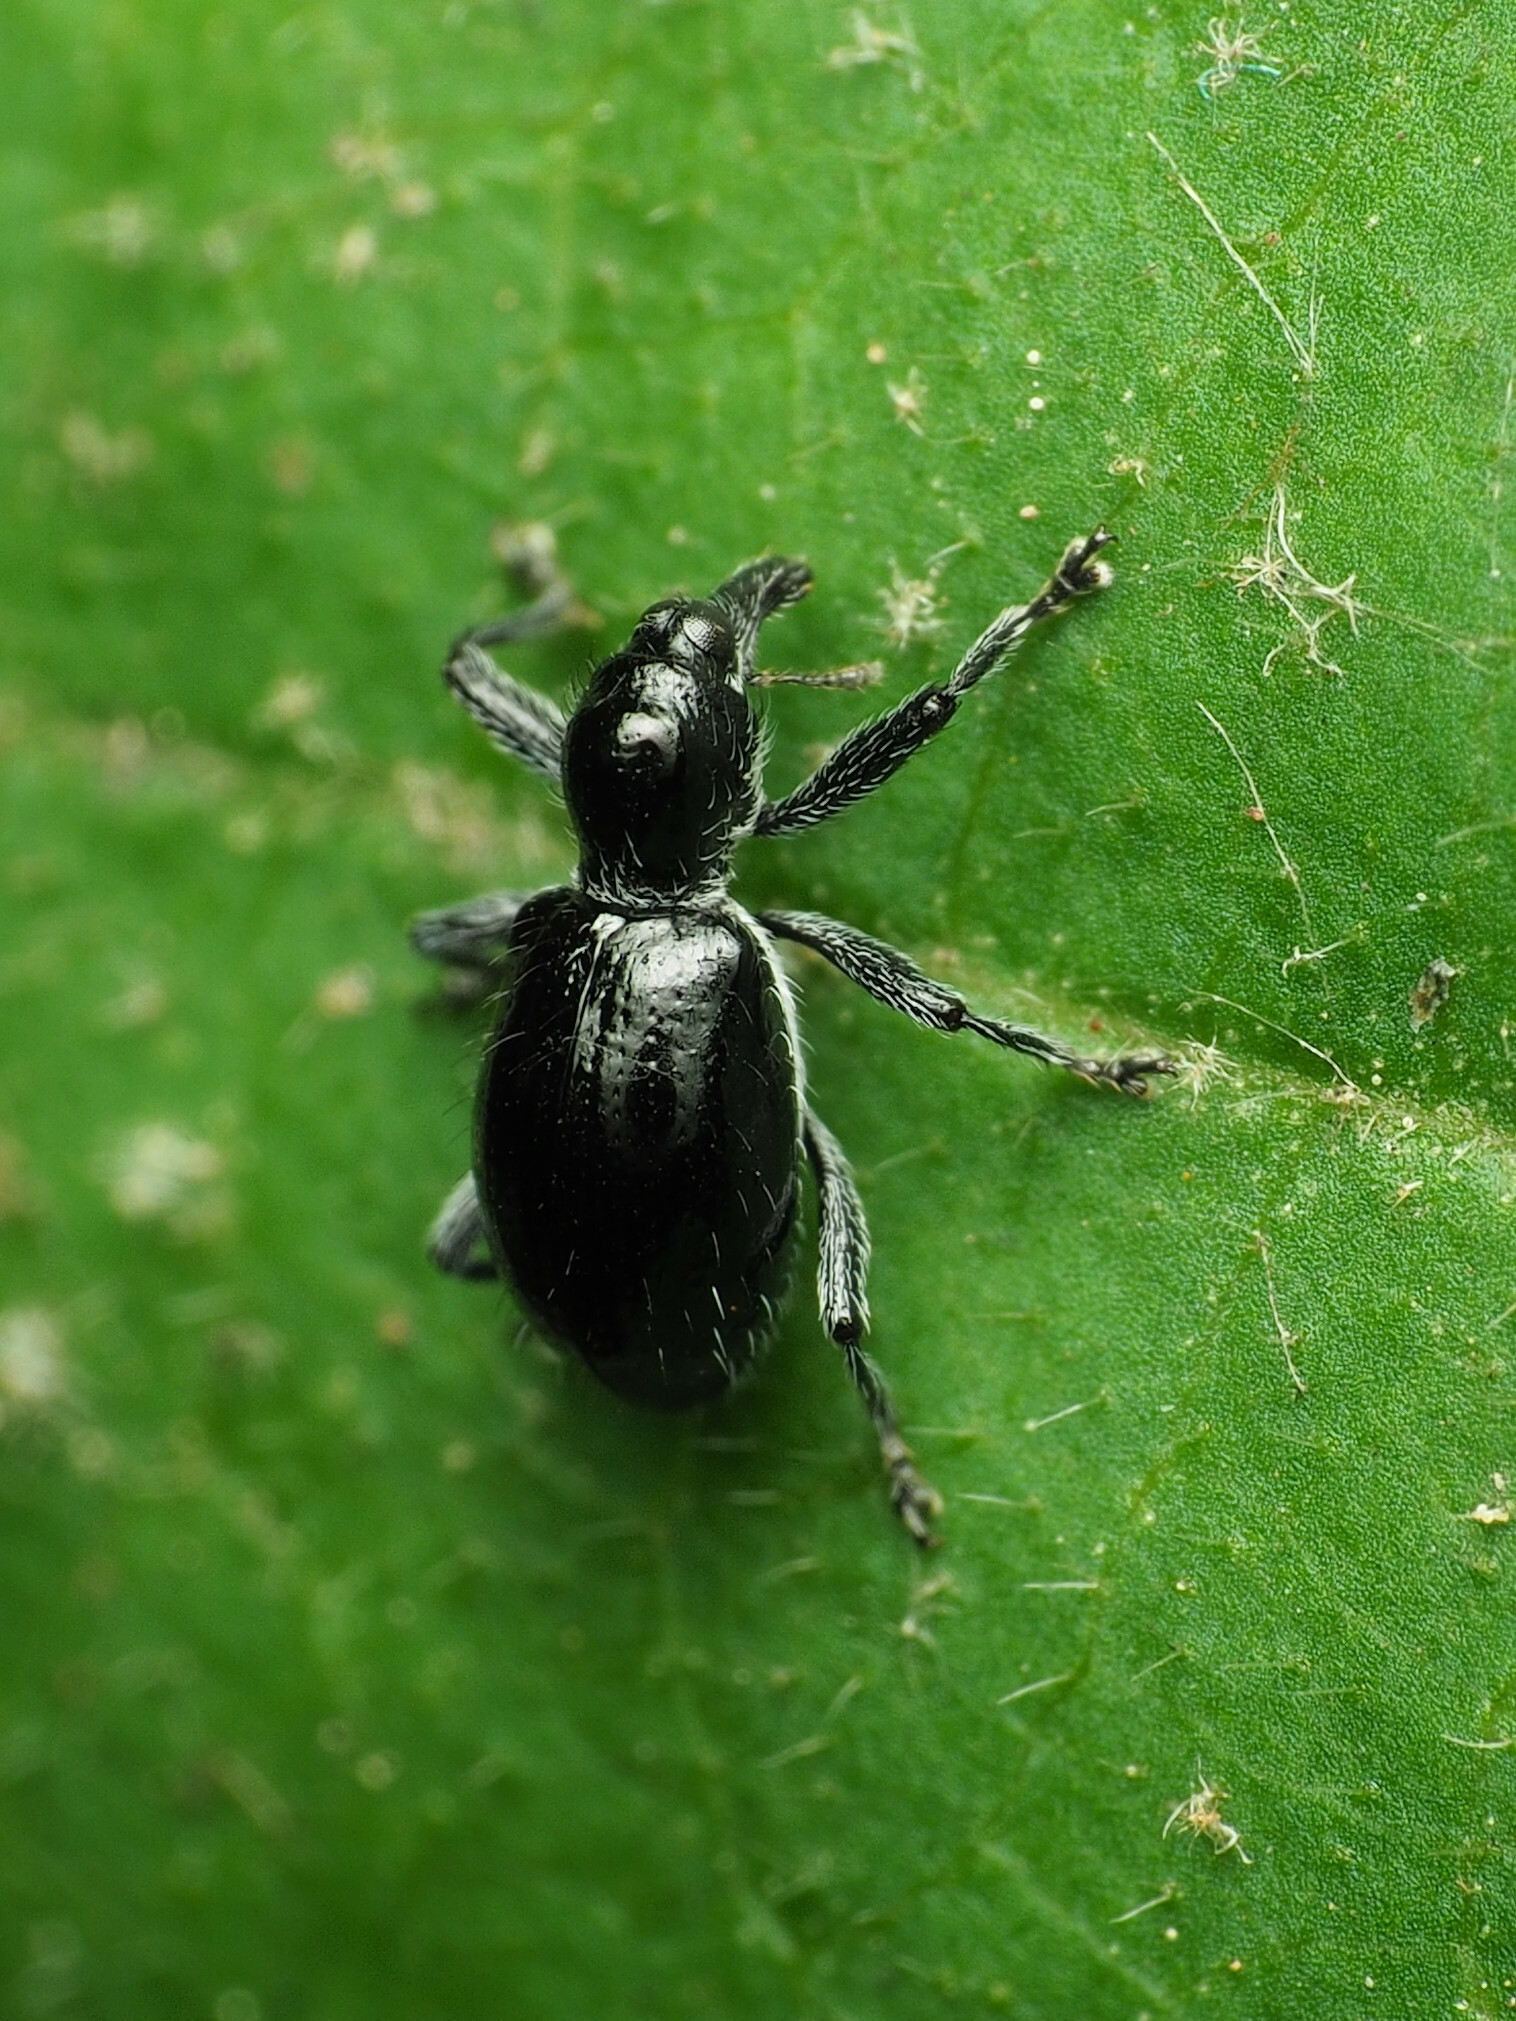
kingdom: Animalia
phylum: Arthropoda
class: Insecta
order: Coleoptera
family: Curculionidae
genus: Otidocephalus
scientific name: Otidocephalus laevicollis
